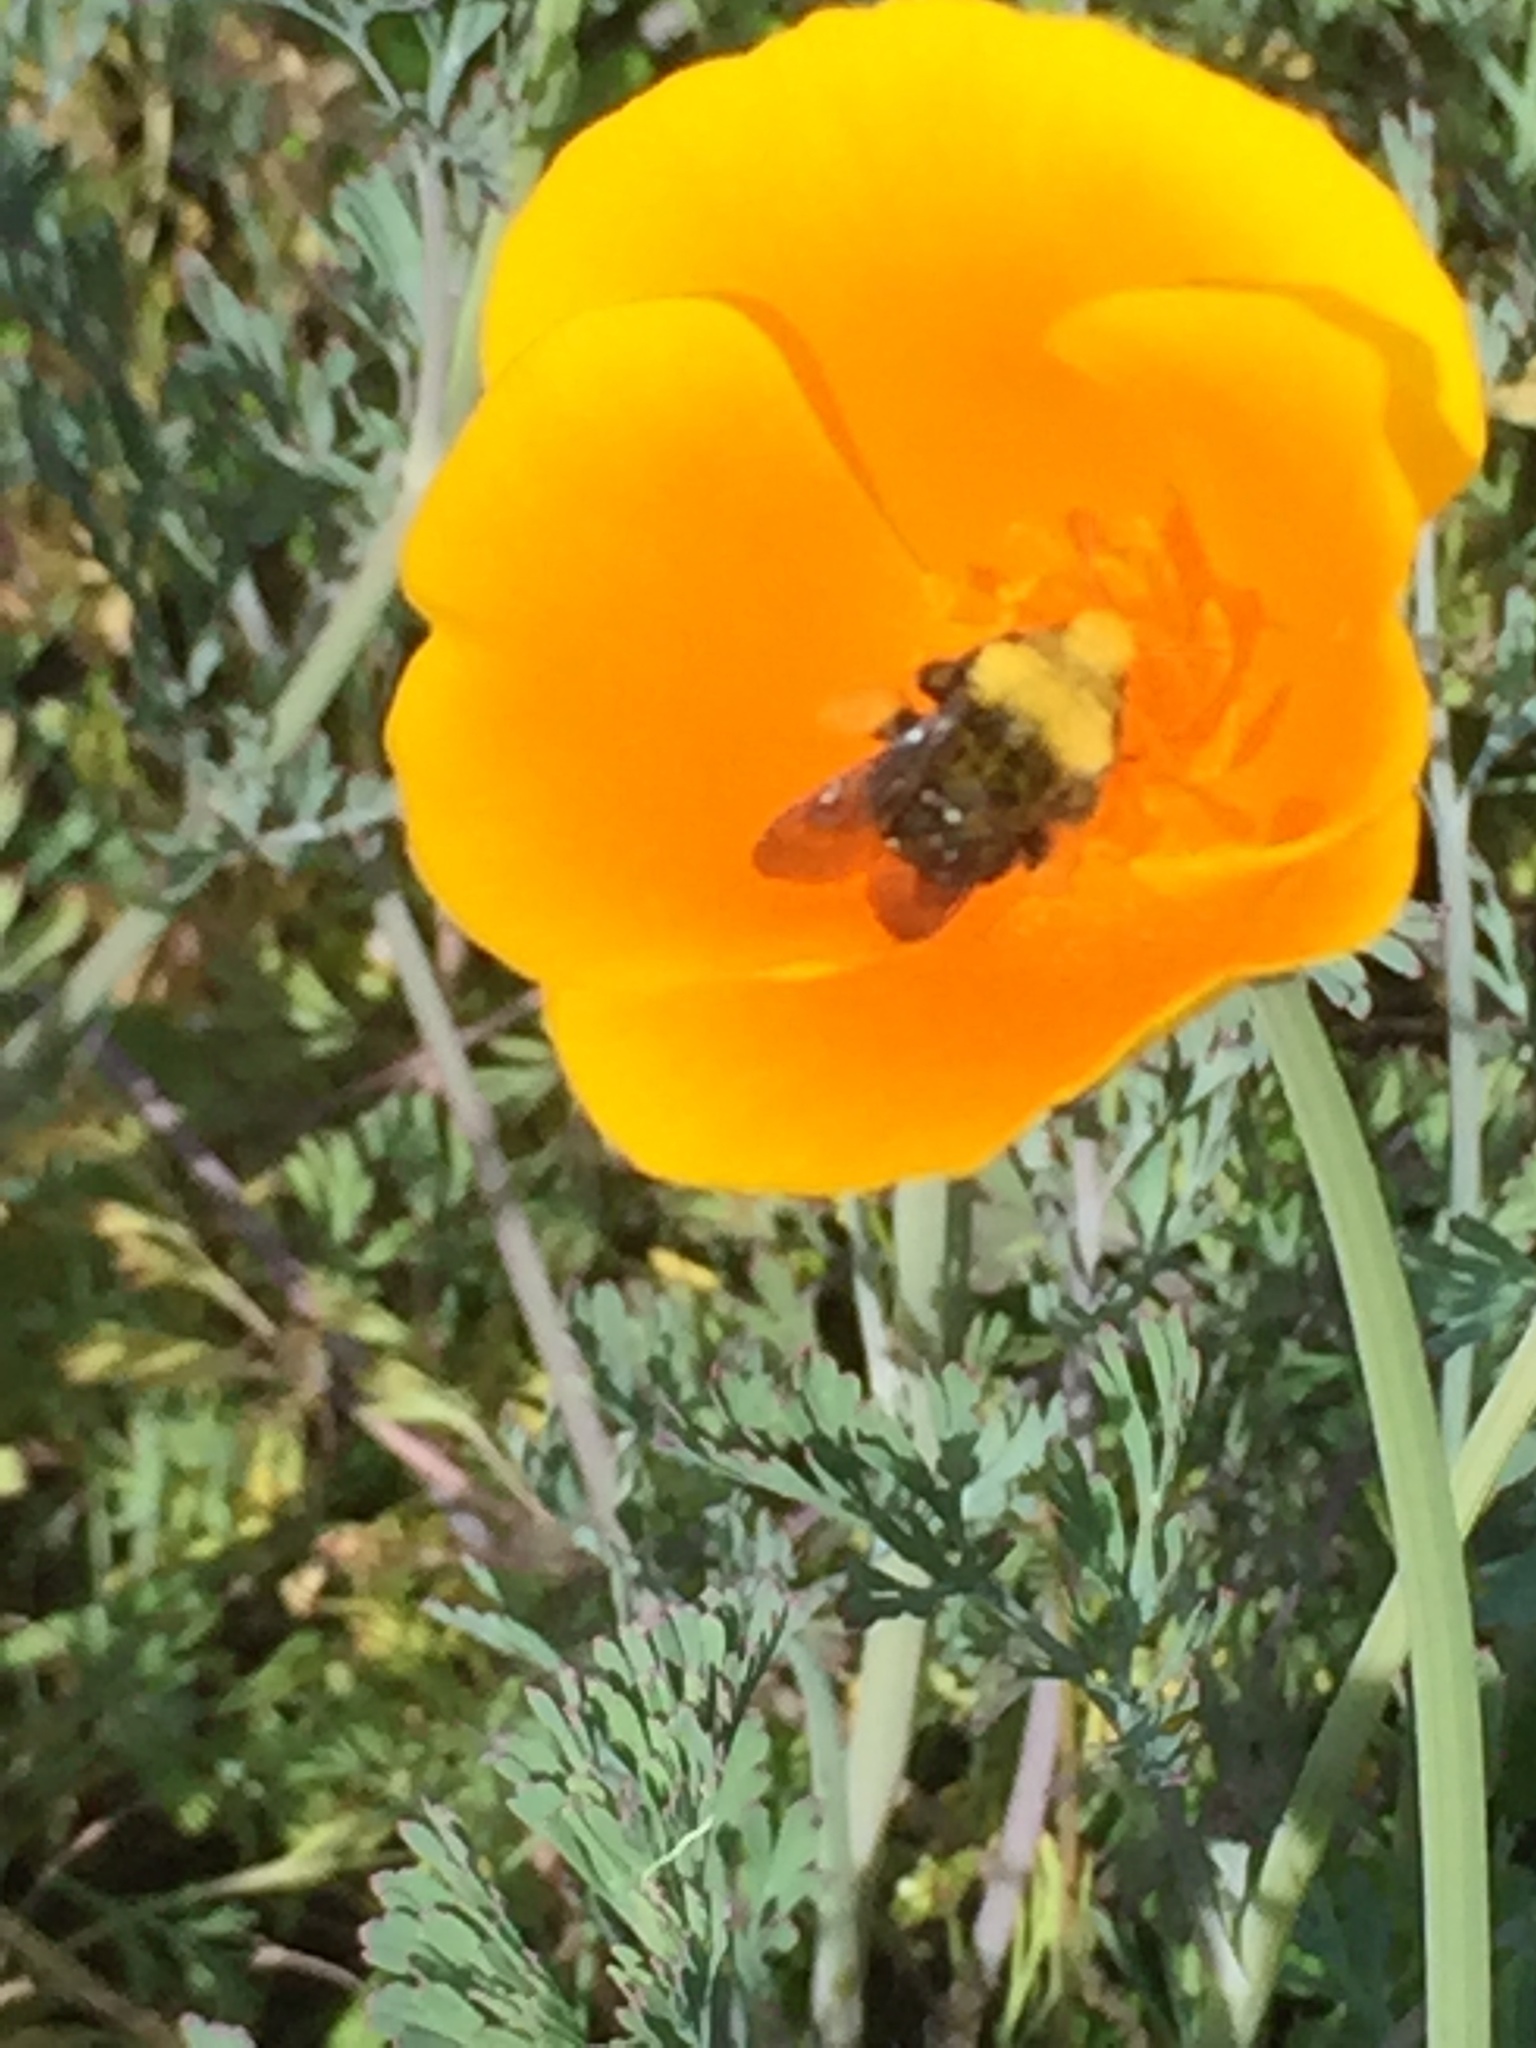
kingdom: Animalia
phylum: Arthropoda
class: Insecta
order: Hymenoptera
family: Apidae
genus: Bombus
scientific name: Bombus vosnesenskii
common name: Vosnesensky bumble bee
